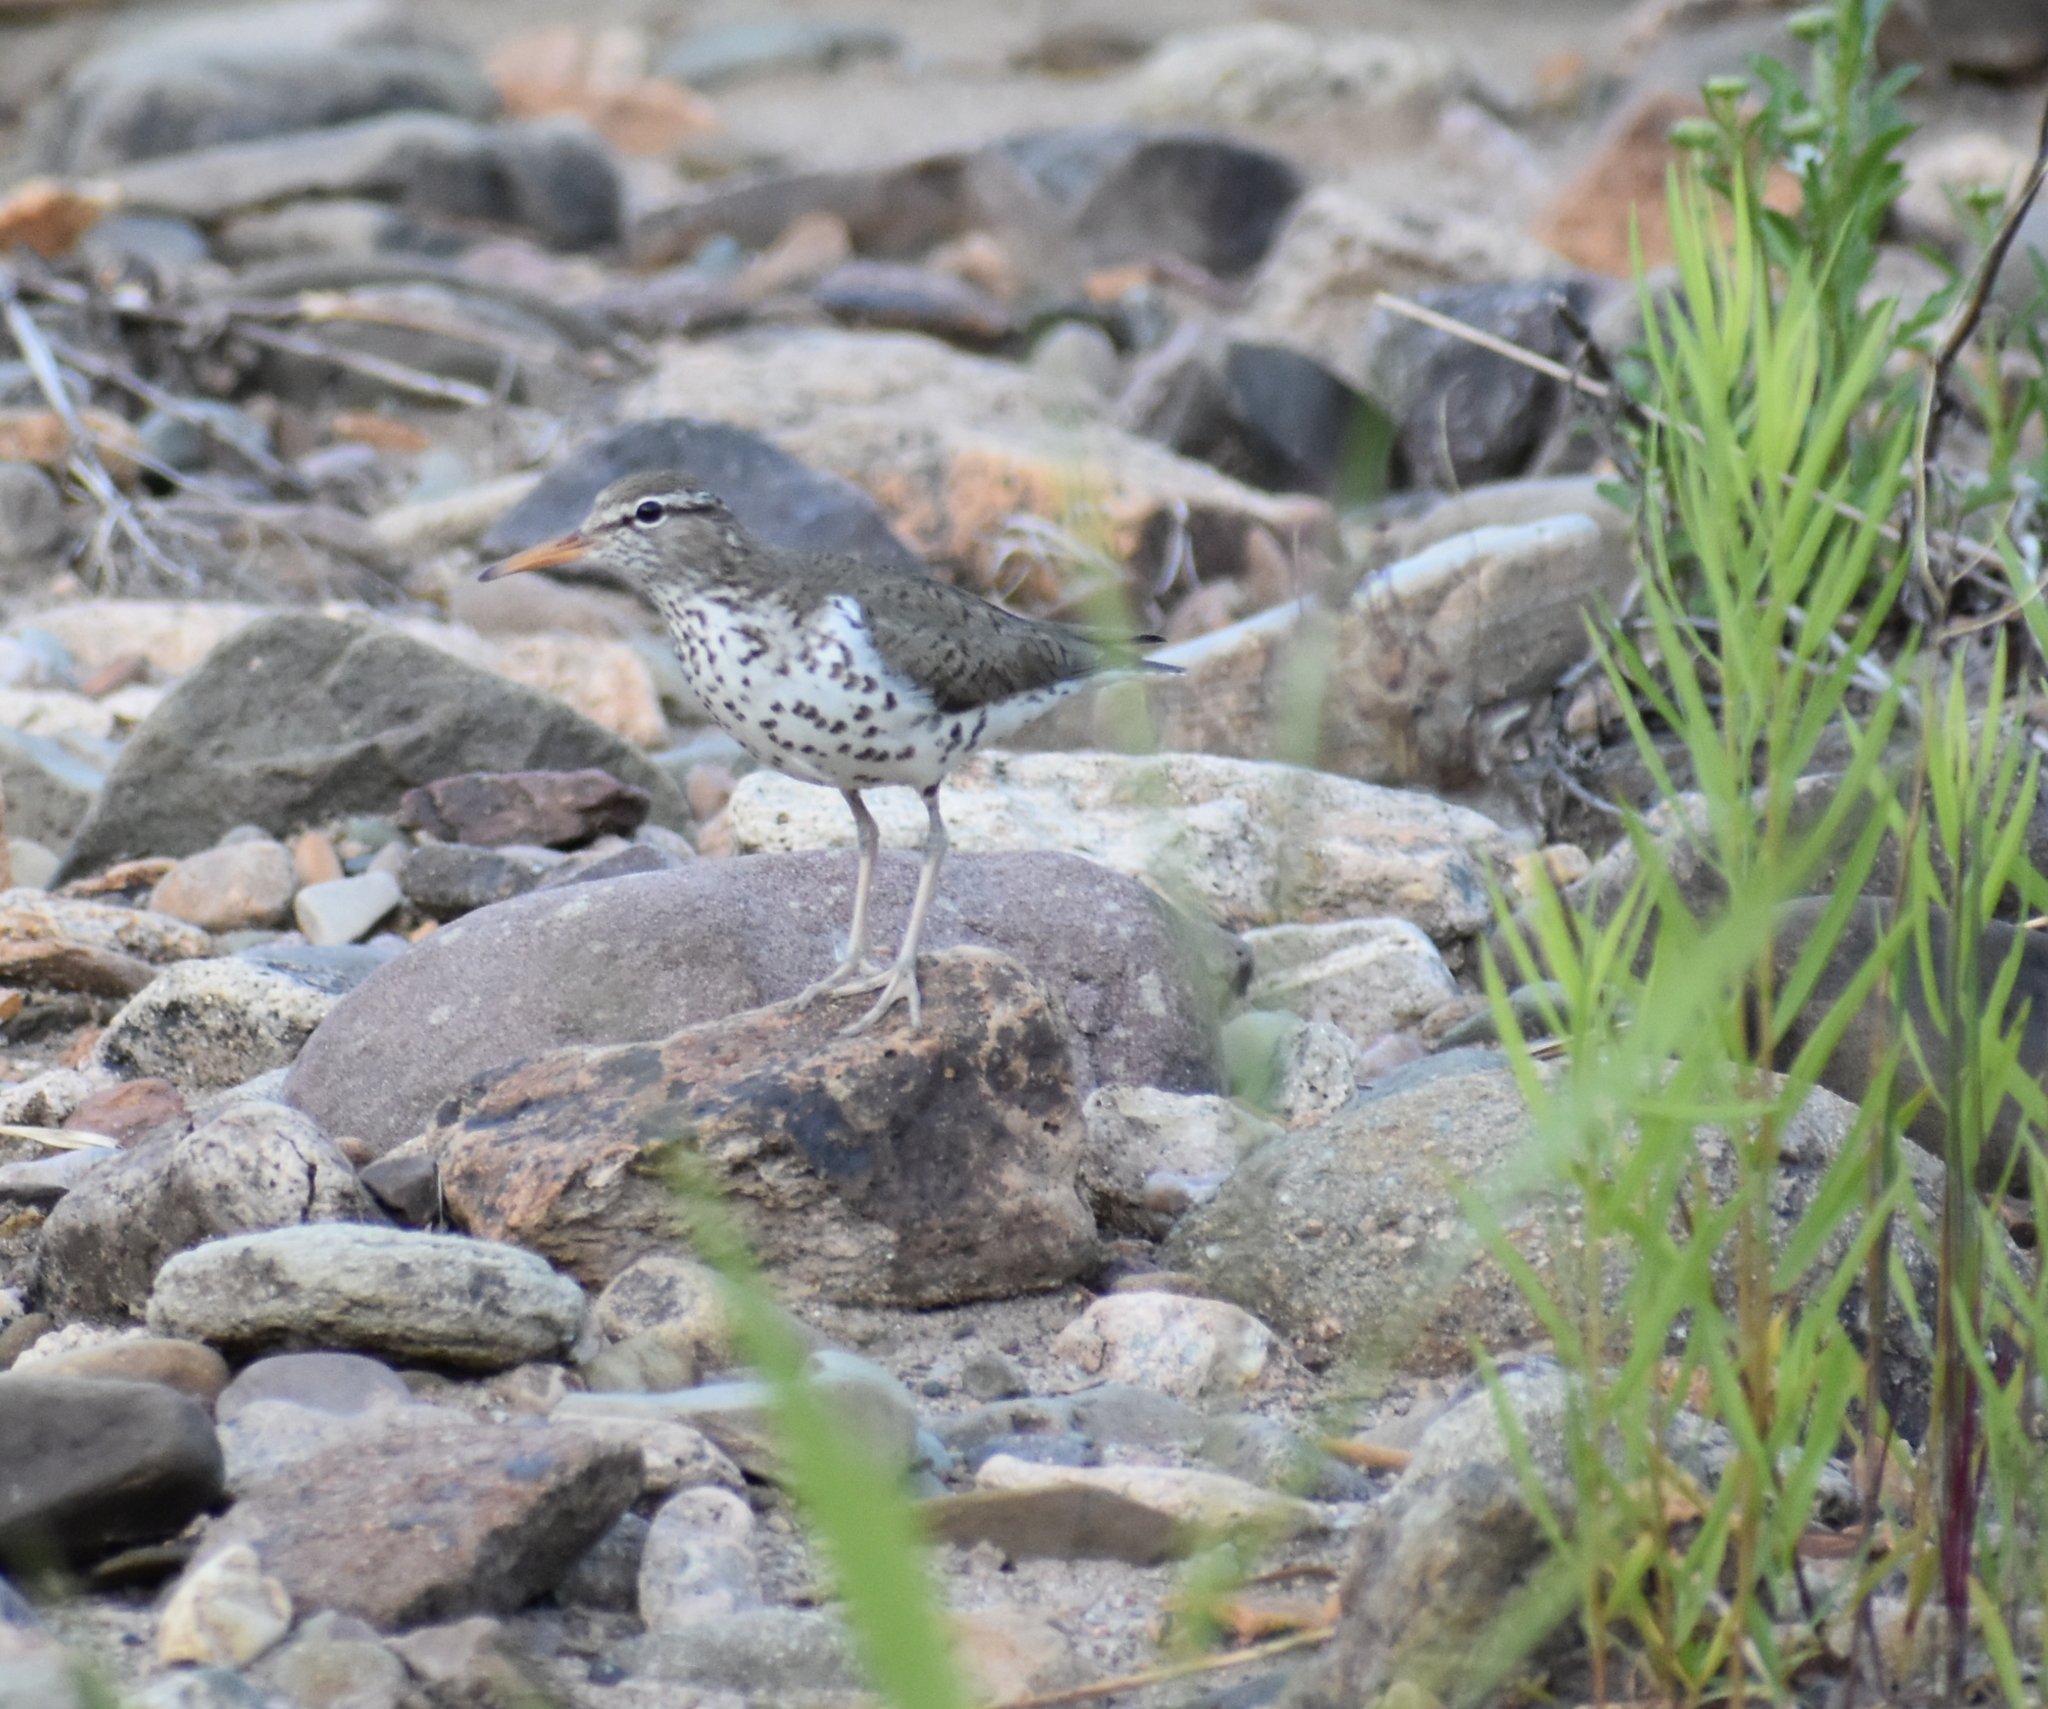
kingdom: Animalia
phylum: Chordata
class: Aves
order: Charadriiformes
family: Scolopacidae
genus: Actitis
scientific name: Actitis macularius
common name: Spotted sandpiper
